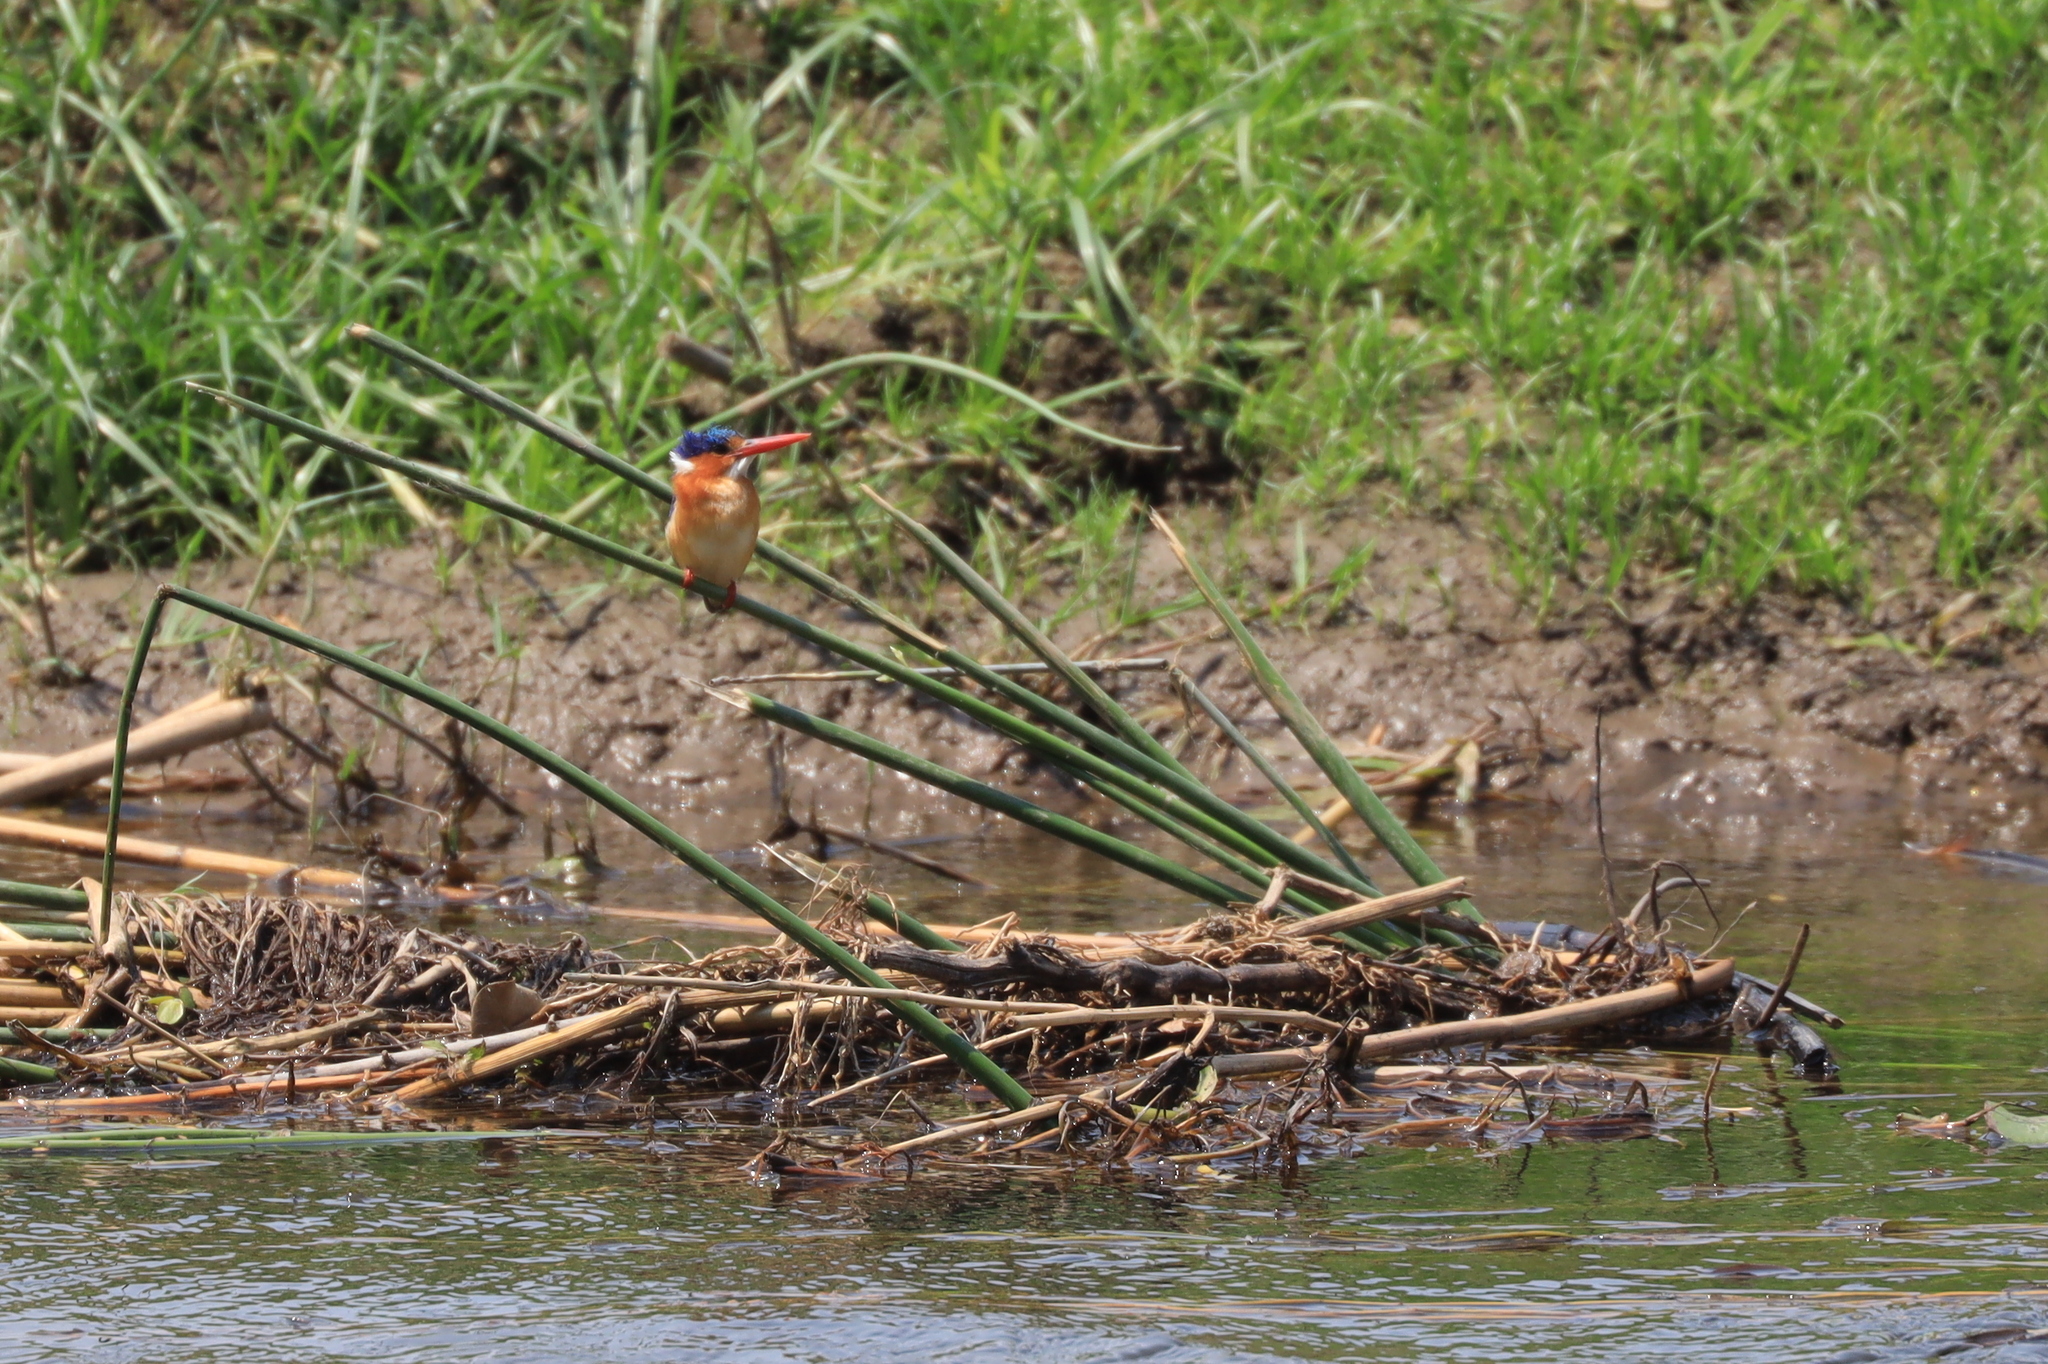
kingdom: Animalia
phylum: Chordata
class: Aves
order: Coraciiformes
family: Alcedinidae
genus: Corythornis
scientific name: Corythornis cristatus
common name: Malachite kingfisher
